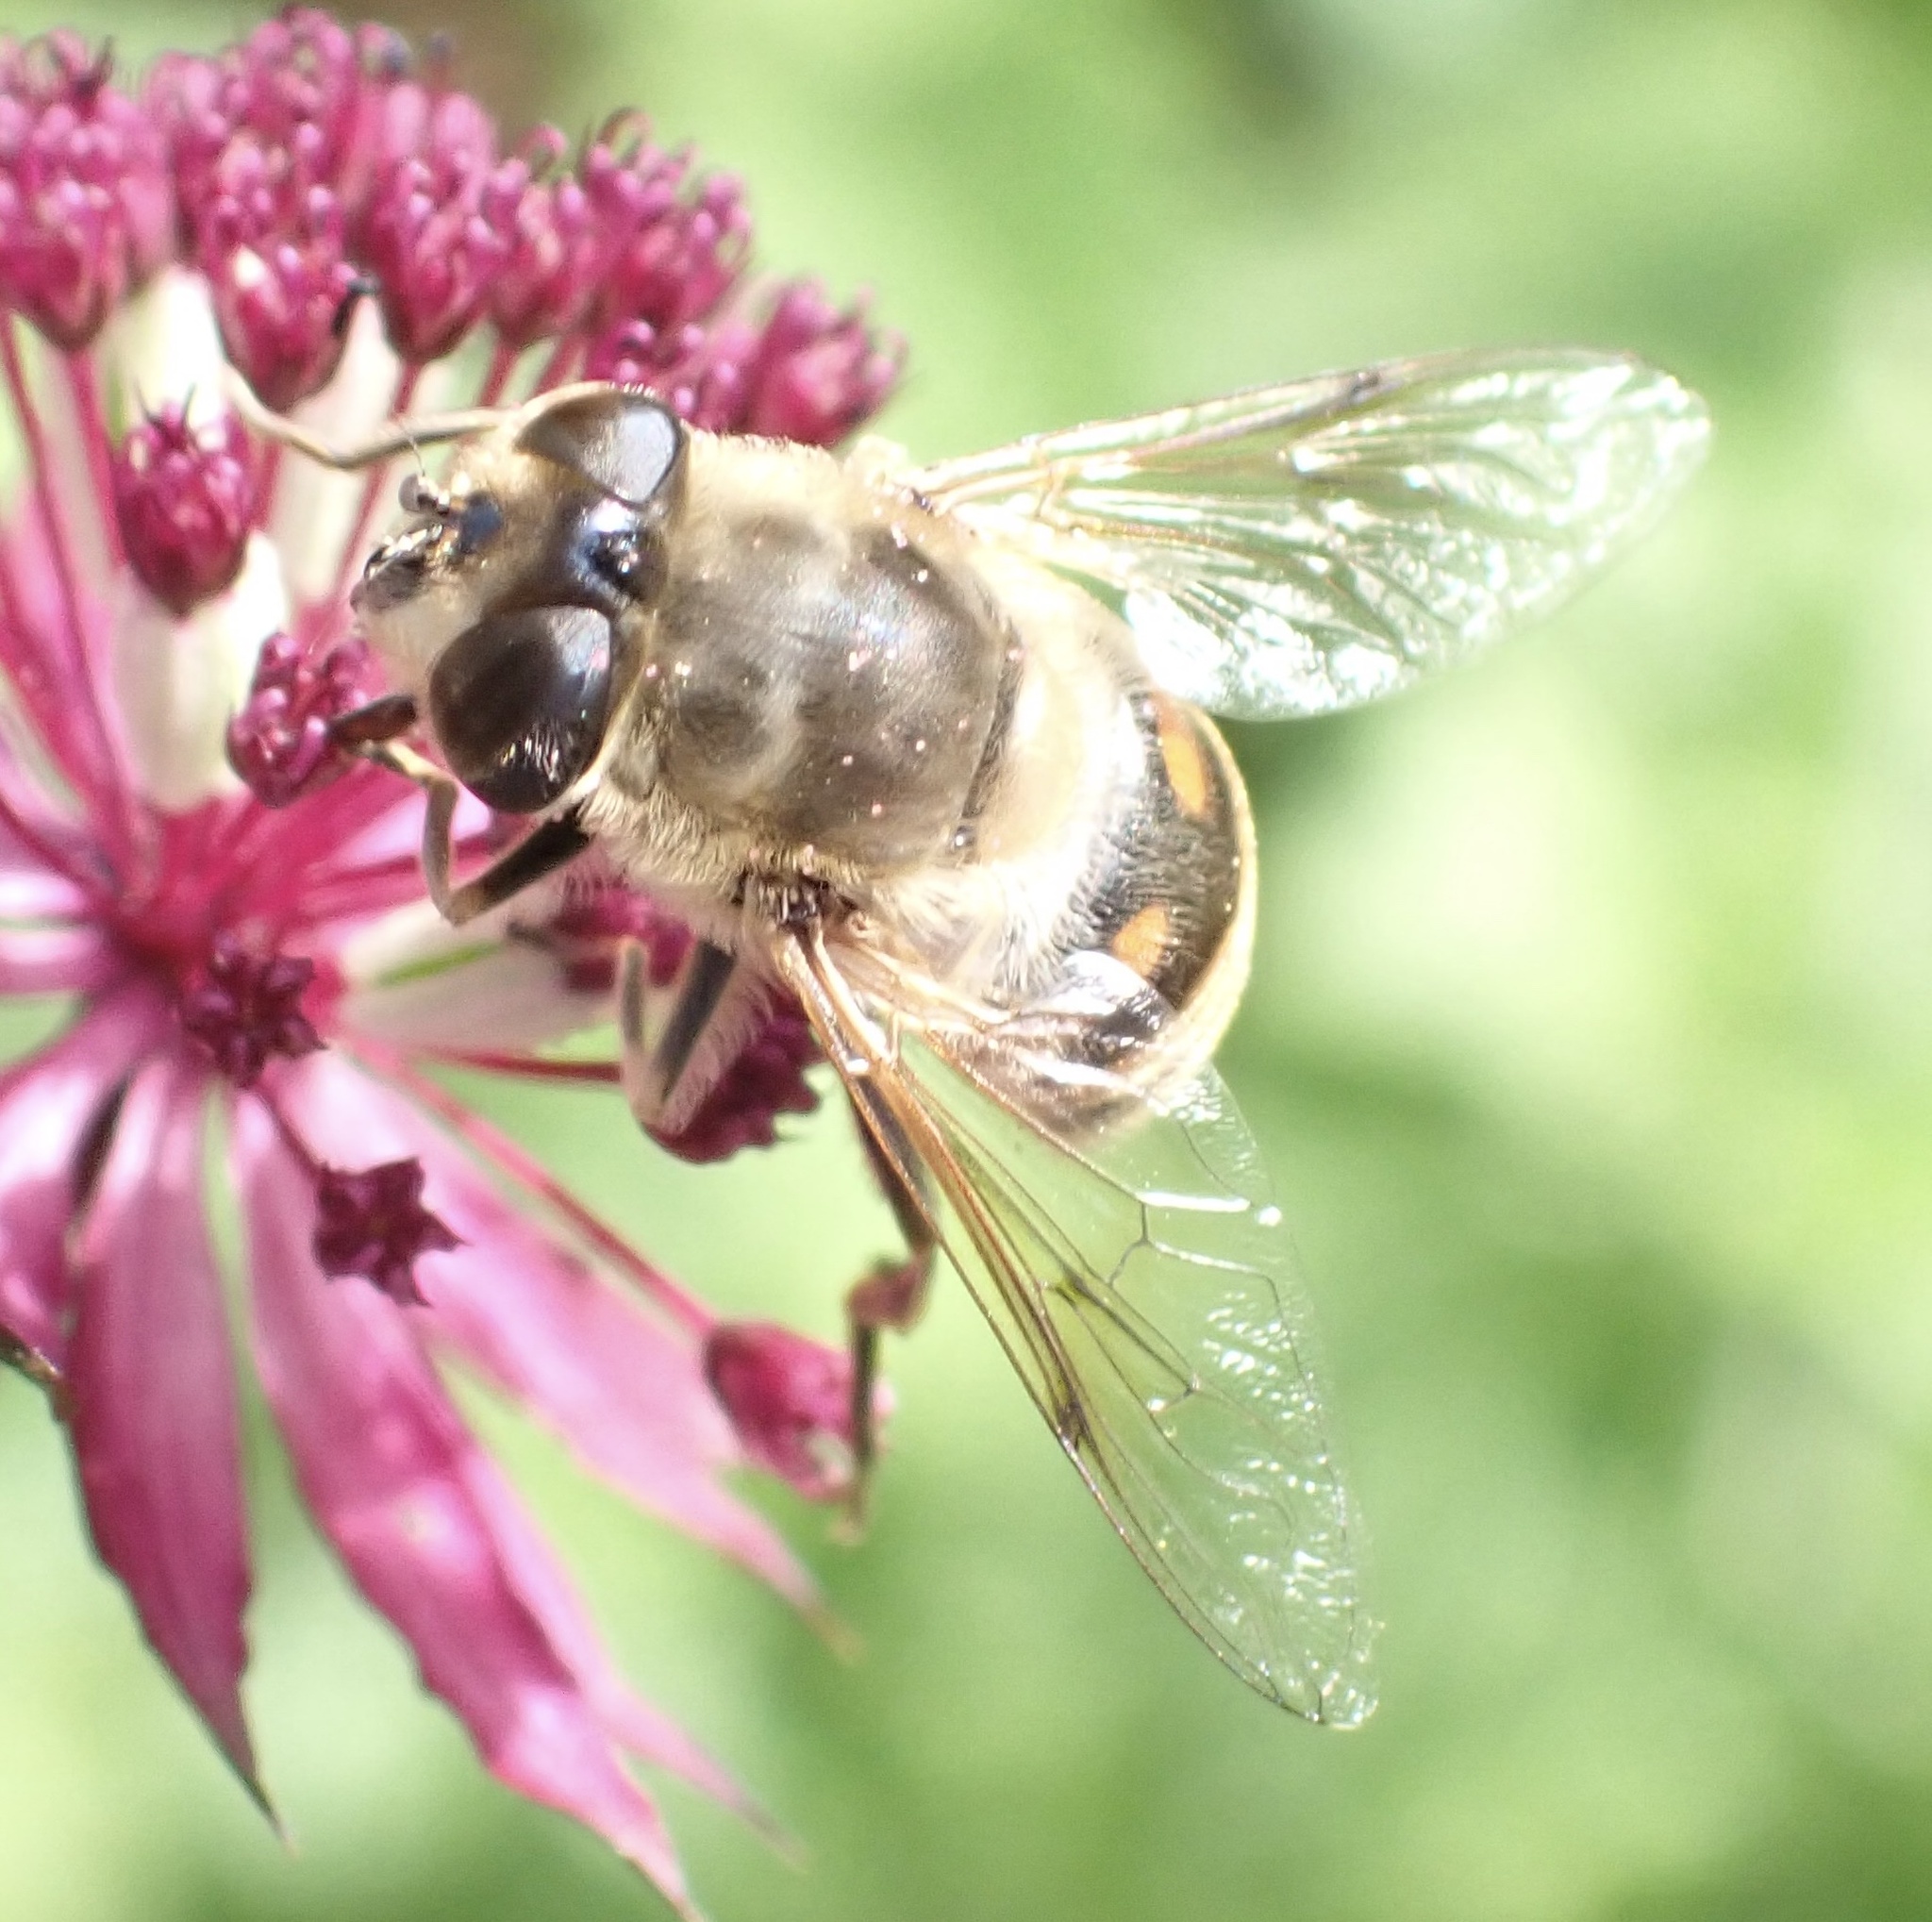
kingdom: Animalia
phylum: Arthropoda
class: Insecta
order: Diptera
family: Syrphidae
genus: Eristalis
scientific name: Eristalis tenax
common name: Drone fly
